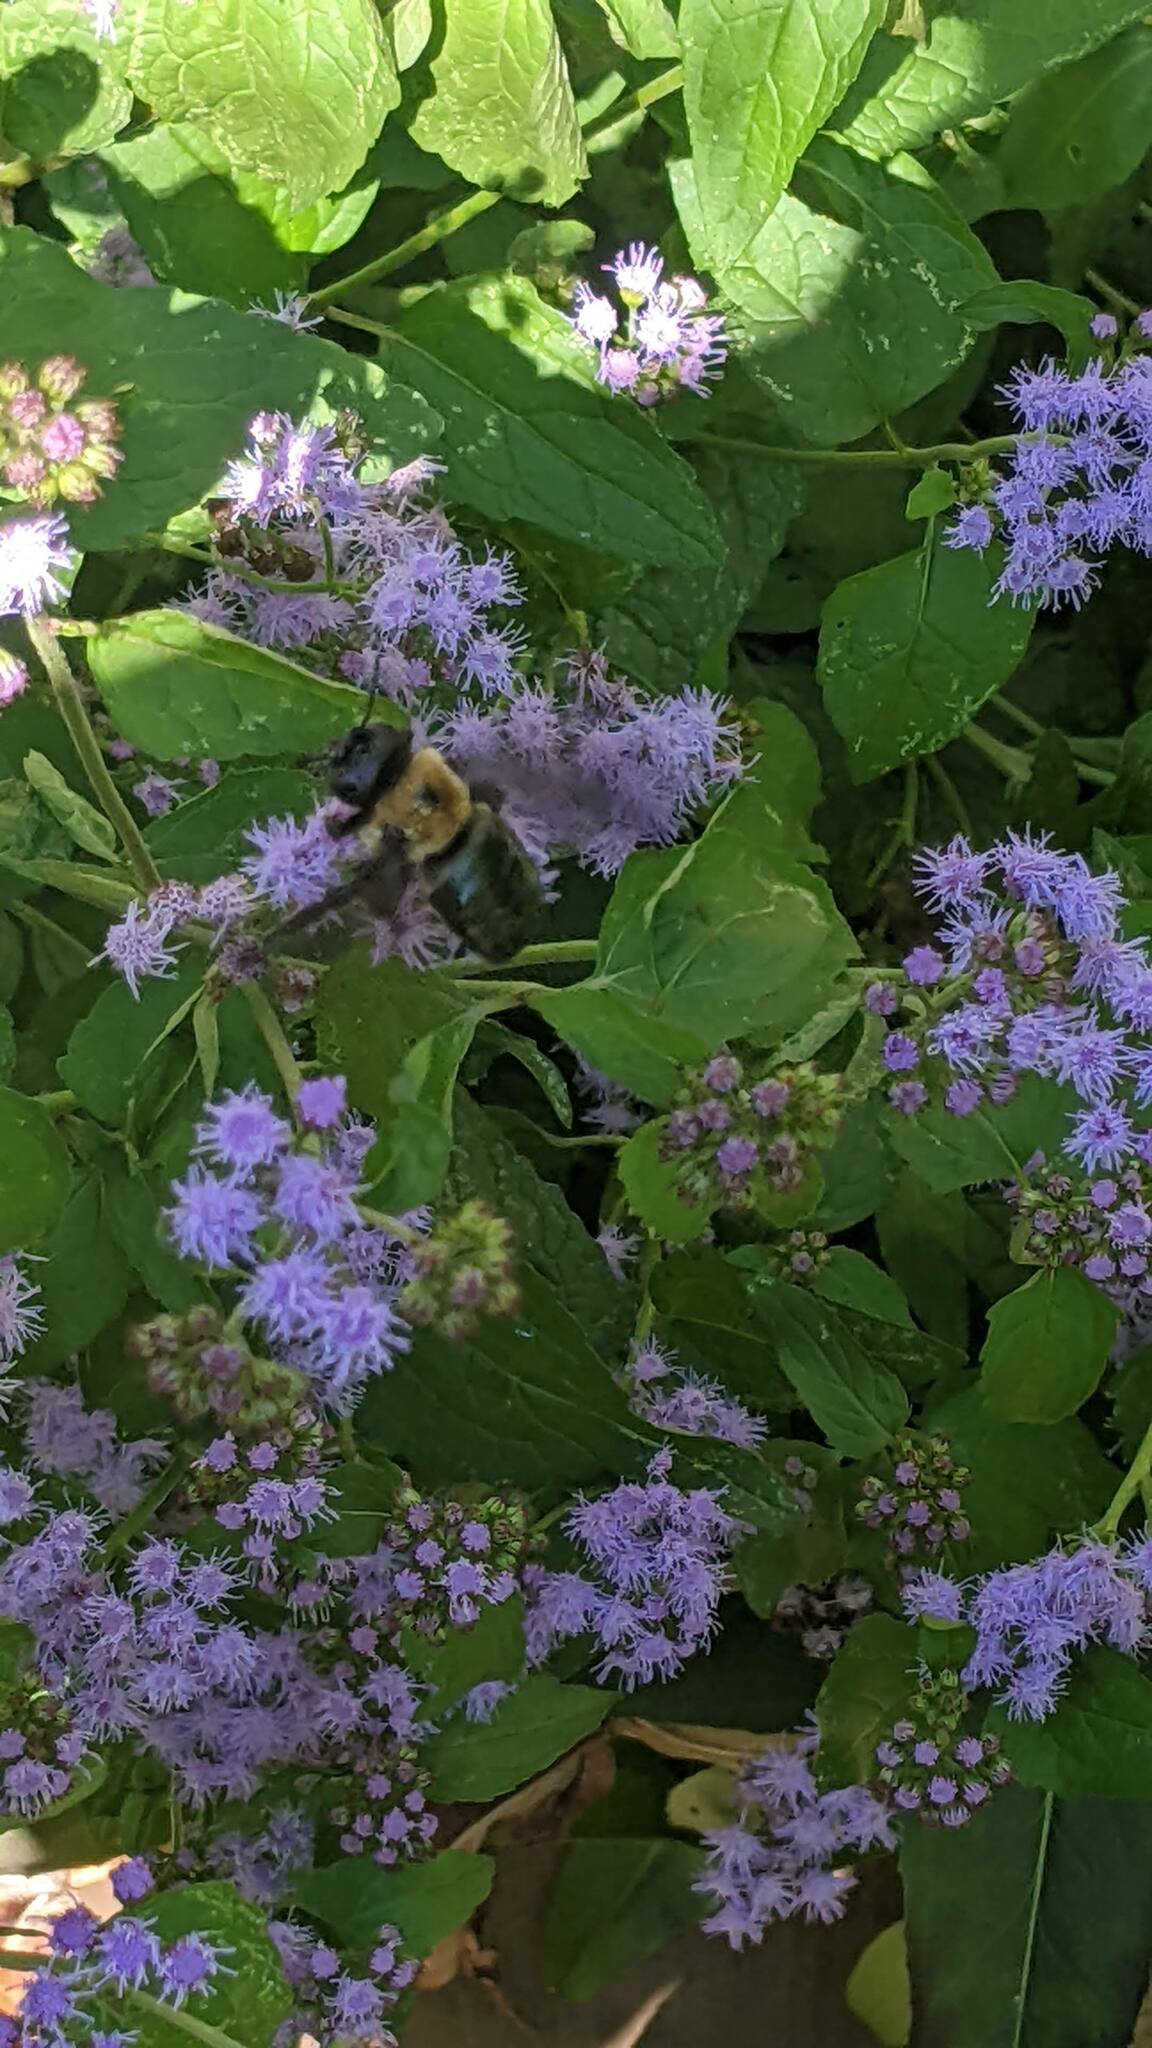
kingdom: Animalia
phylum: Arthropoda
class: Insecta
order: Hymenoptera
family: Apidae
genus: Xylocopa
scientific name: Xylocopa virginica
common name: Carpenter bee
